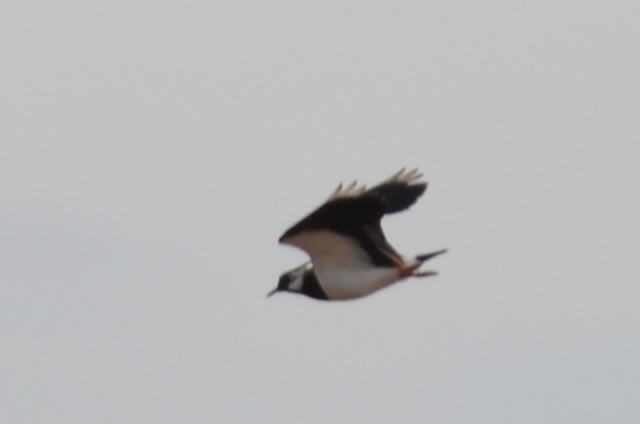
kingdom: Animalia
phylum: Chordata
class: Aves
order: Charadriiformes
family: Charadriidae
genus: Vanellus
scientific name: Vanellus vanellus
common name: Northern lapwing
